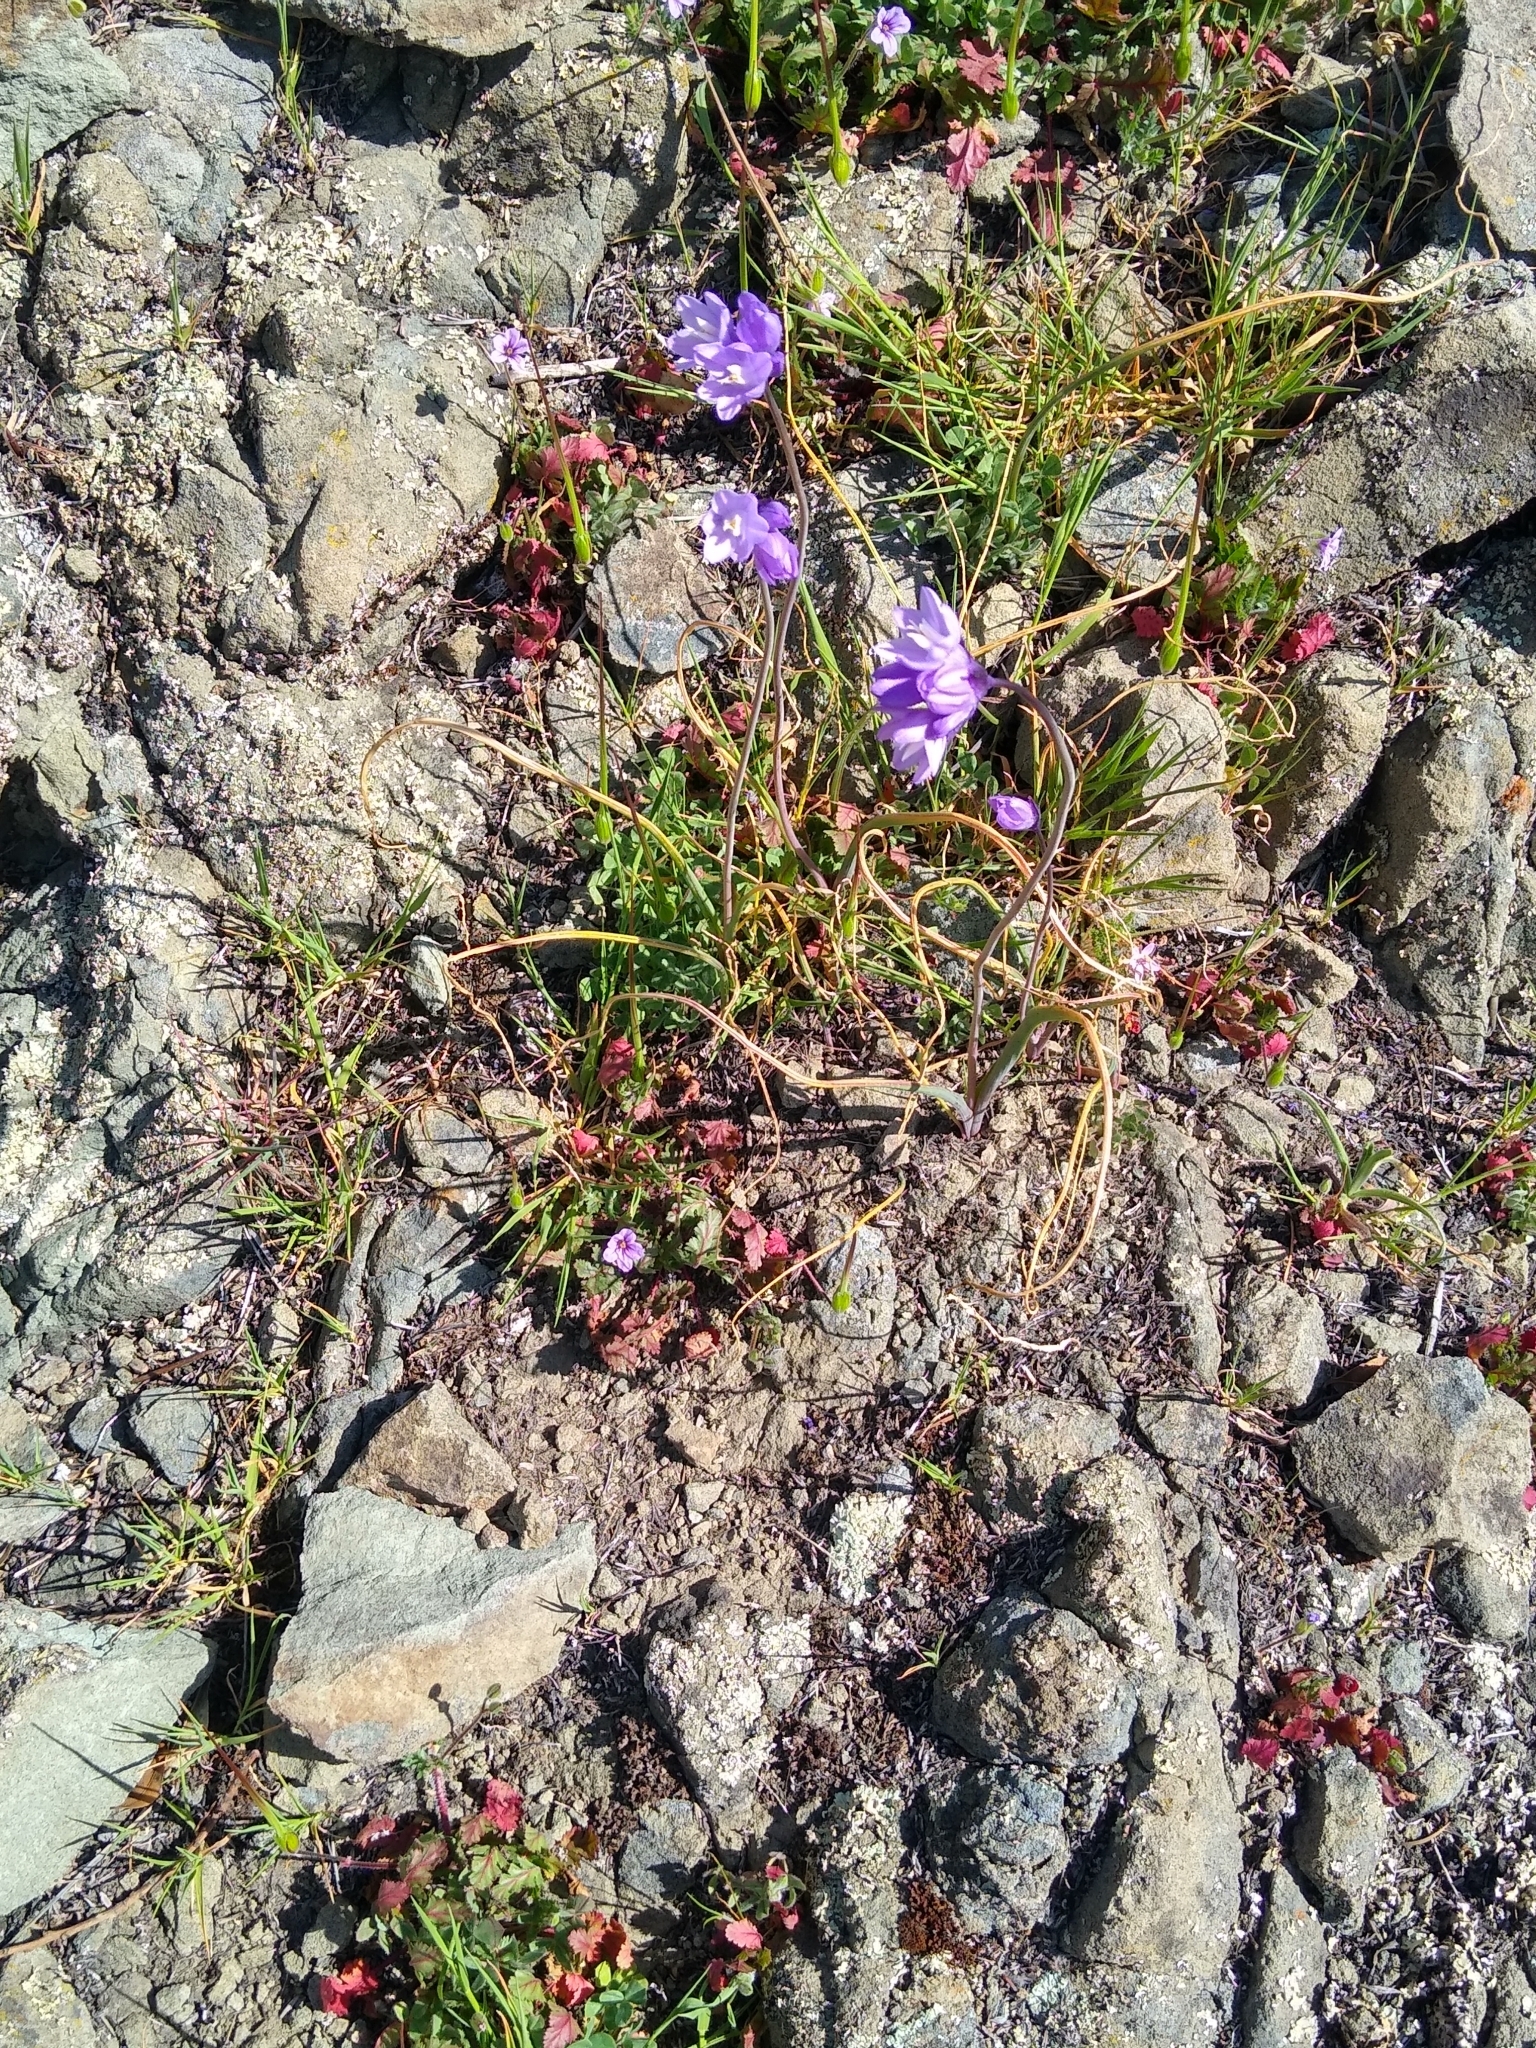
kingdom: Plantae
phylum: Tracheophyta
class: Liliopsida
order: Asparagales
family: Asparagaceae
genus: Dipterostemon
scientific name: Dipterostemon capitatus
